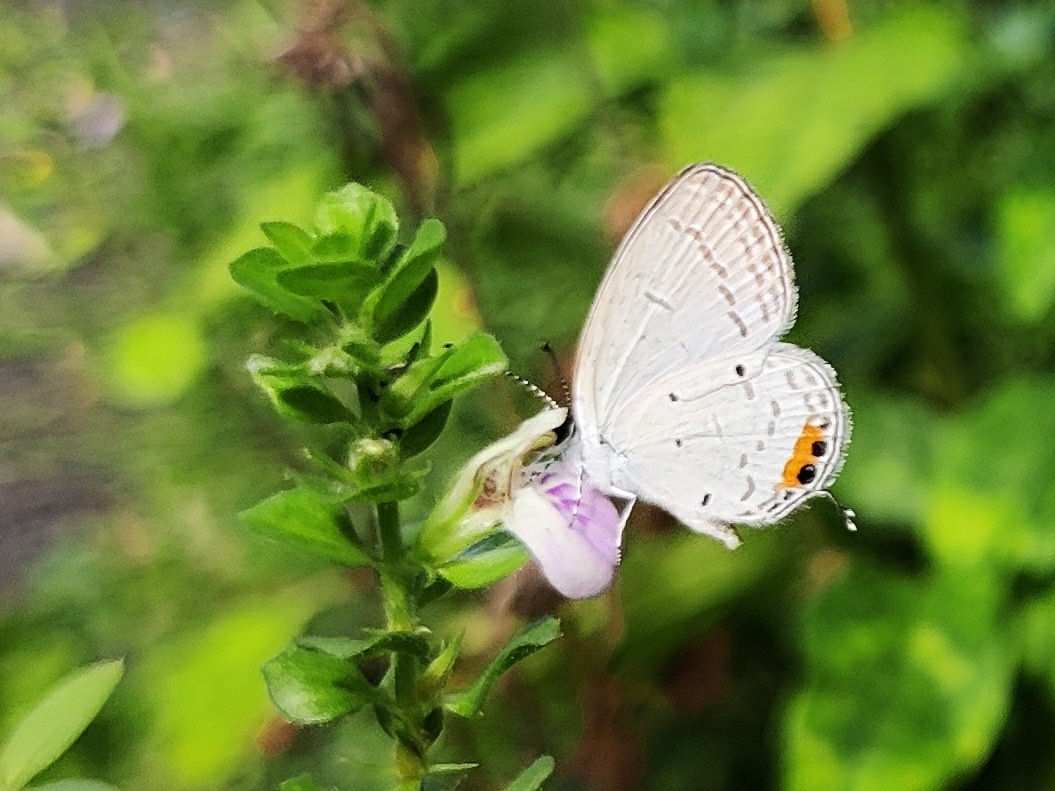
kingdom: Animalia
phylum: Arthropoda
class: Insecta
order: Lepidoptera
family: Lycaenidae
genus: Everes
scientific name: Everes lacturnus
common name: Orange-tipped pea-blue
